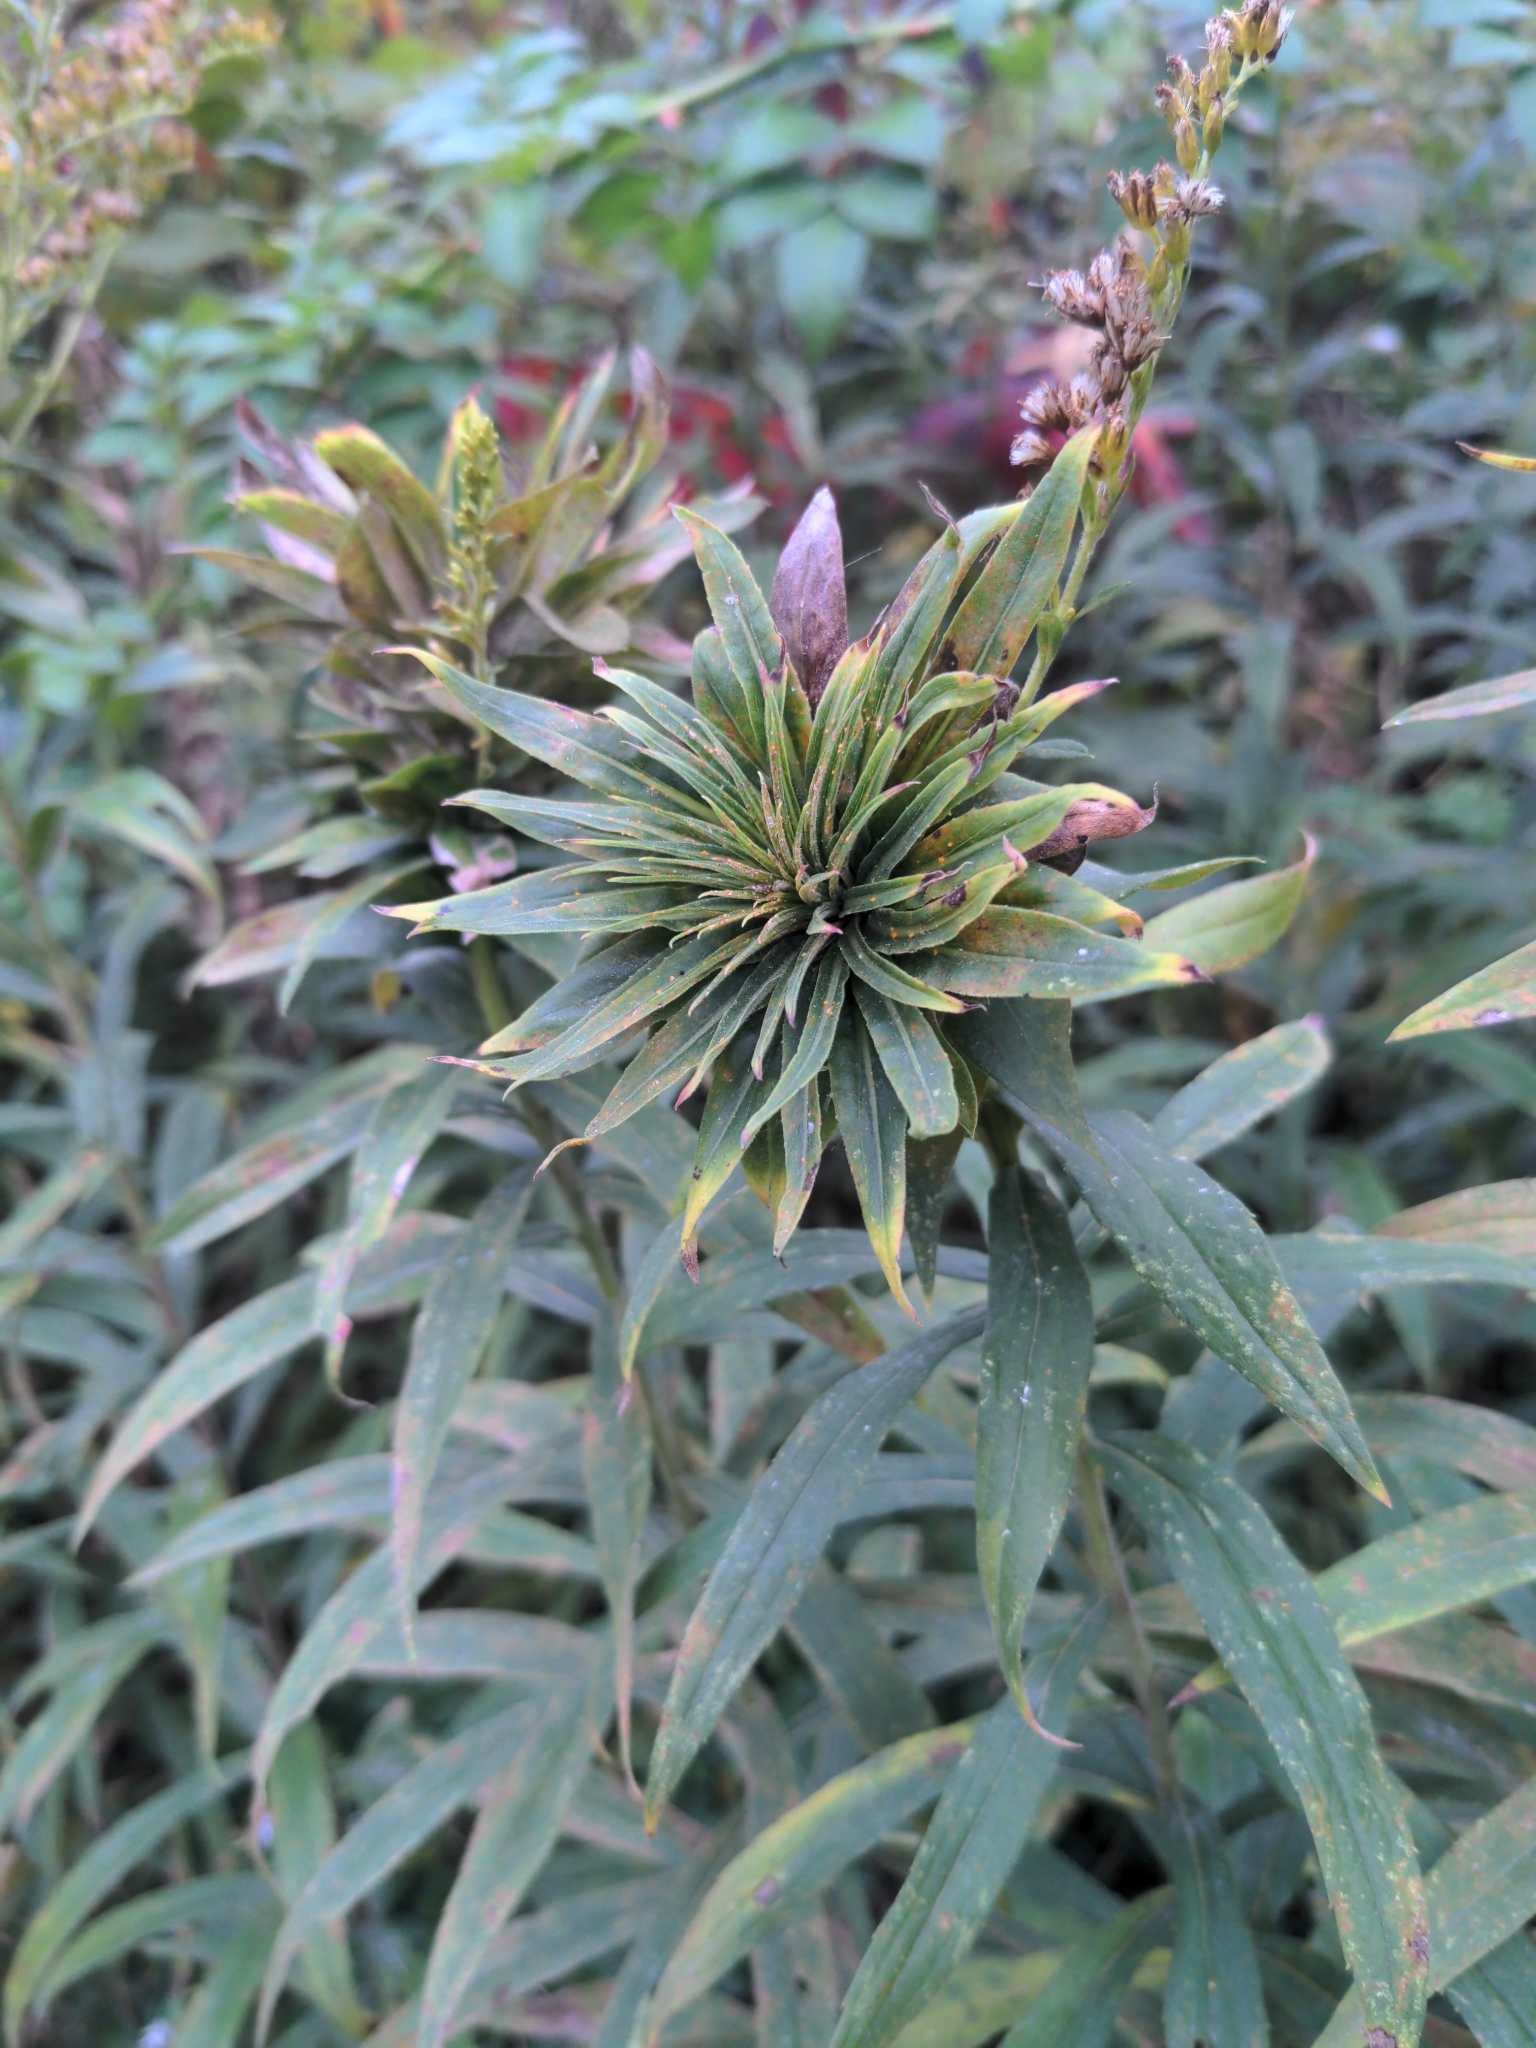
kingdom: Animalia
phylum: Arthropoda
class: Insecta
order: Diptera
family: Cecidomyiidae
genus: Rhopalomyia
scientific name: Rhopalomyia solidaginis
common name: Goldenrod bunch gall midge
